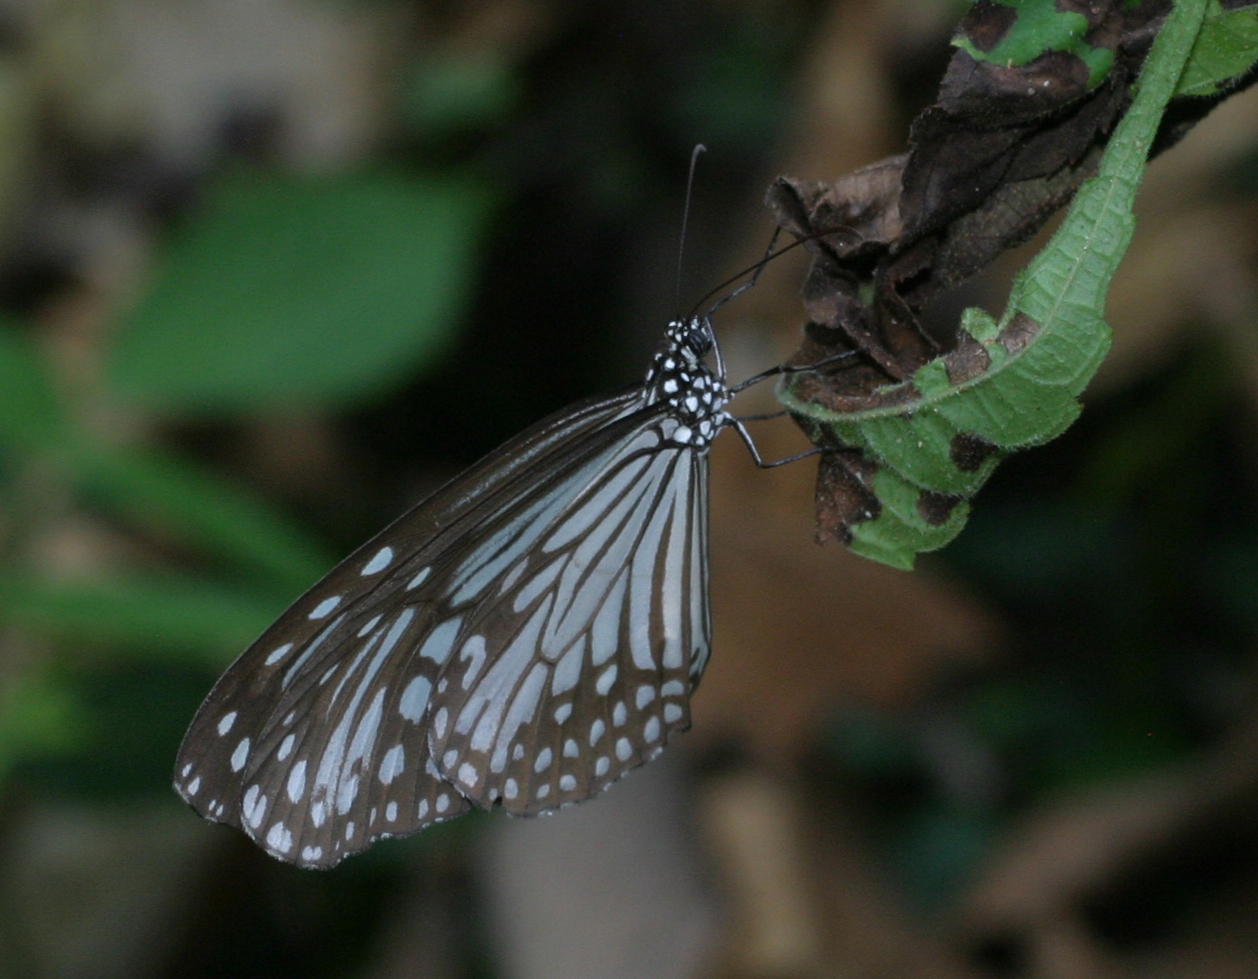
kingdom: Animalia
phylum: Arthropoda
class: Insecta
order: Lepidoptera
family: Nymphalidae
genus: Parantica
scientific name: Parantica aglea
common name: Glassy tiger
